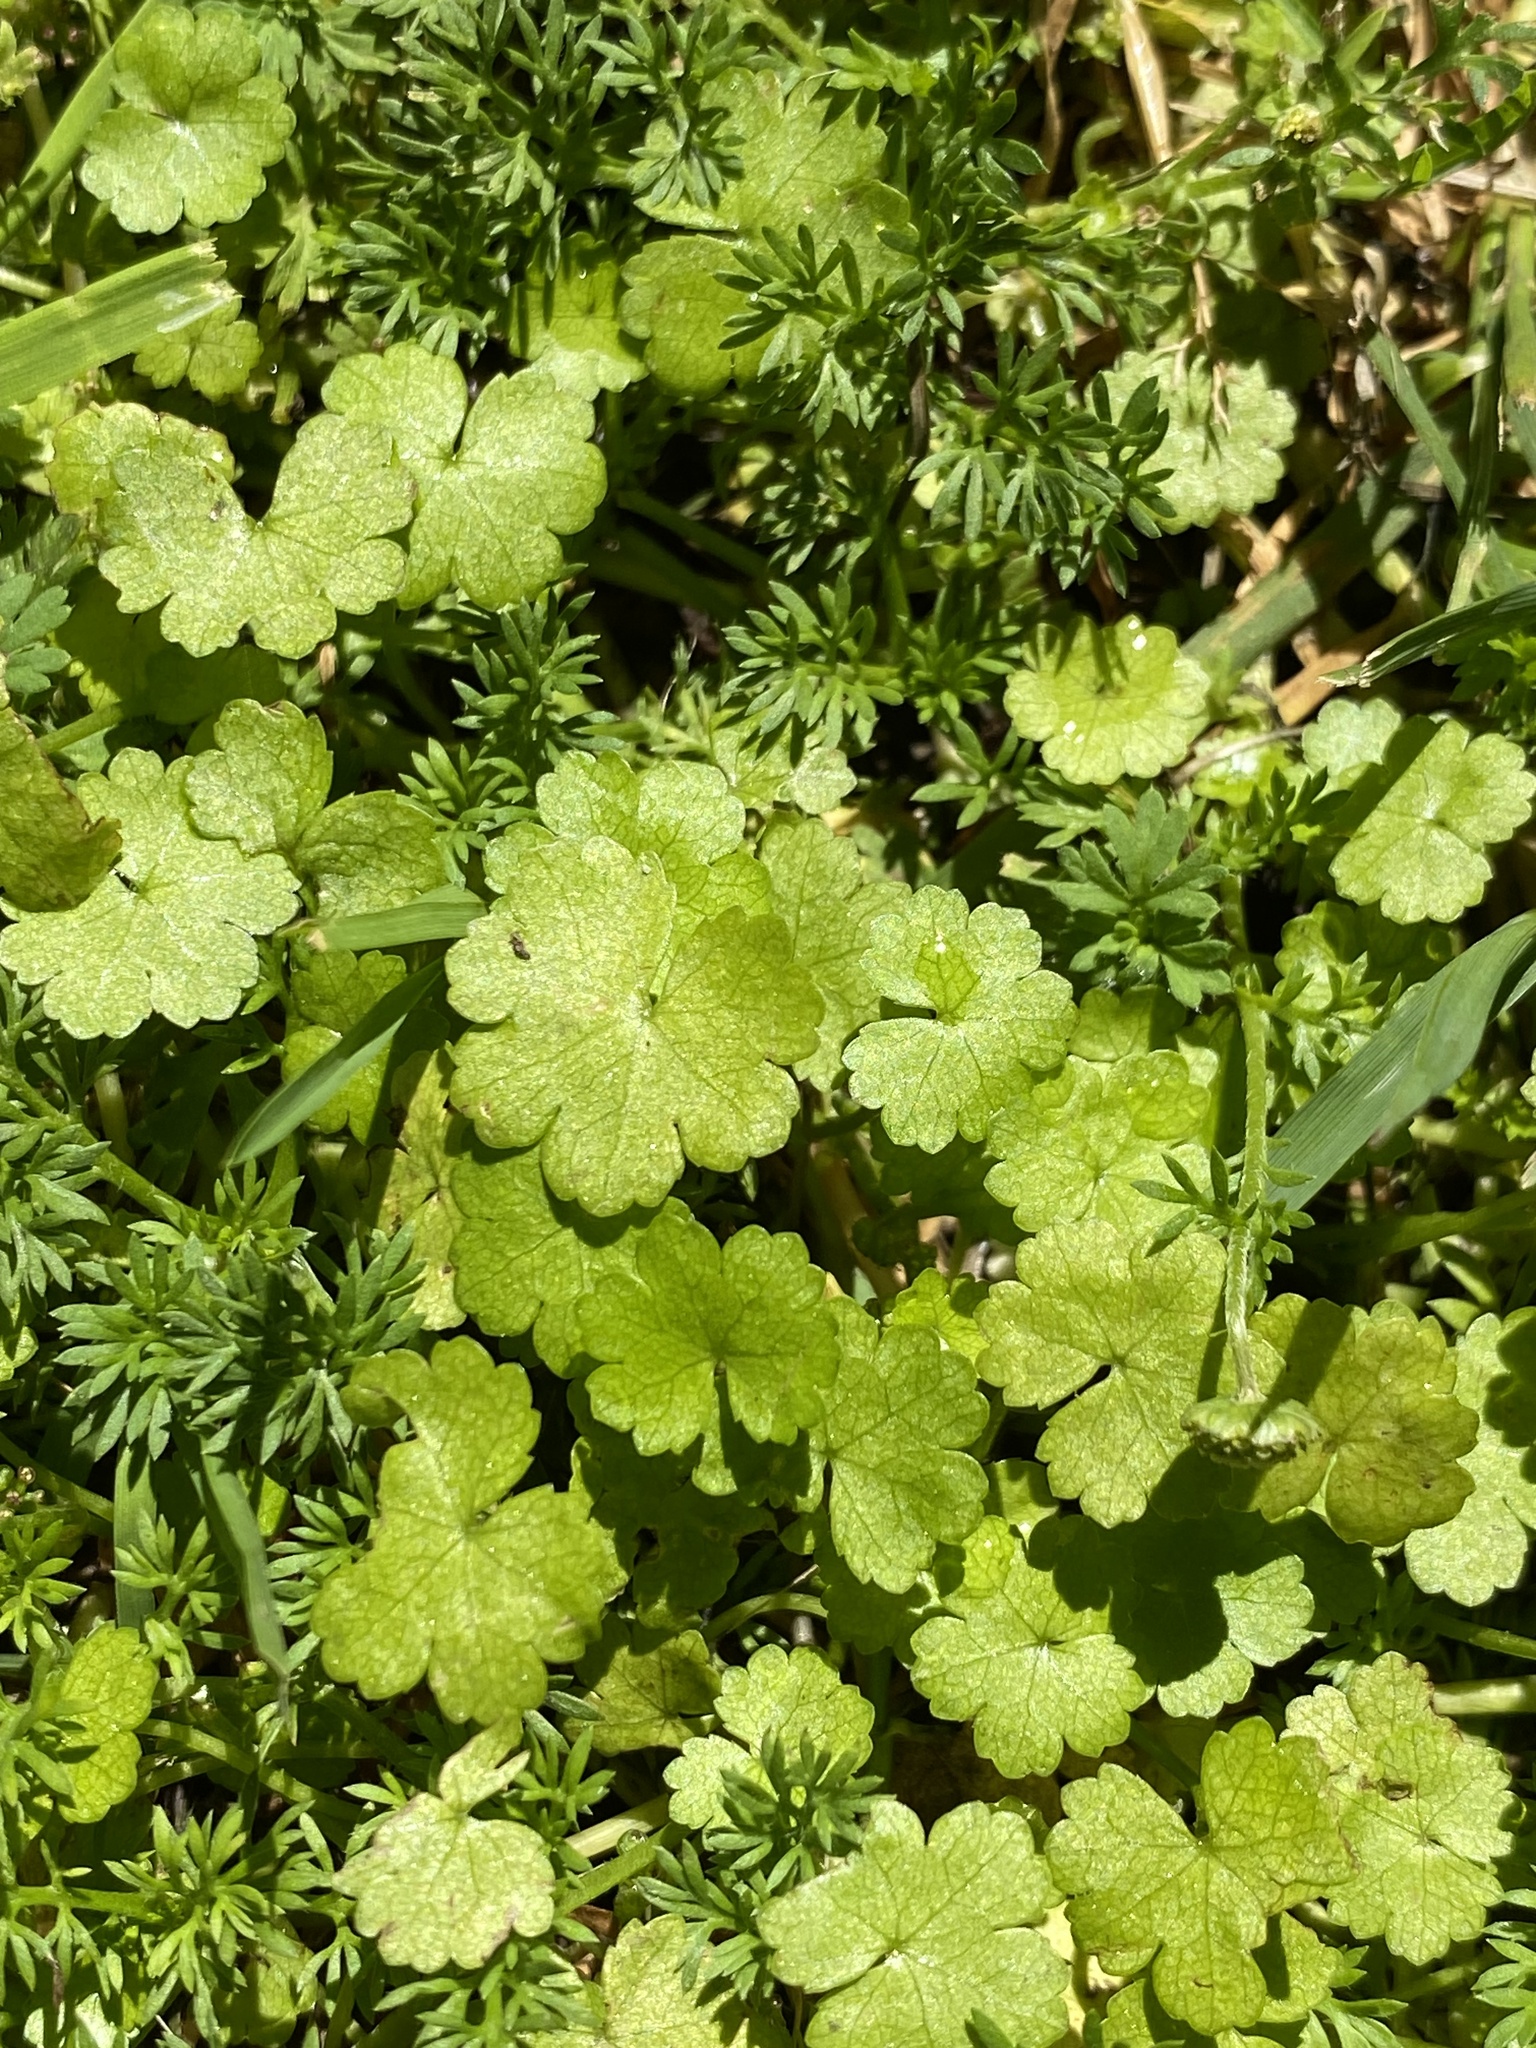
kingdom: Plantae
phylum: Tracheophyta
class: Magnoliopsida
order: Apiales
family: Araliaceae
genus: Hydrocotyle
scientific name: Hydrocotyle heteromeria
